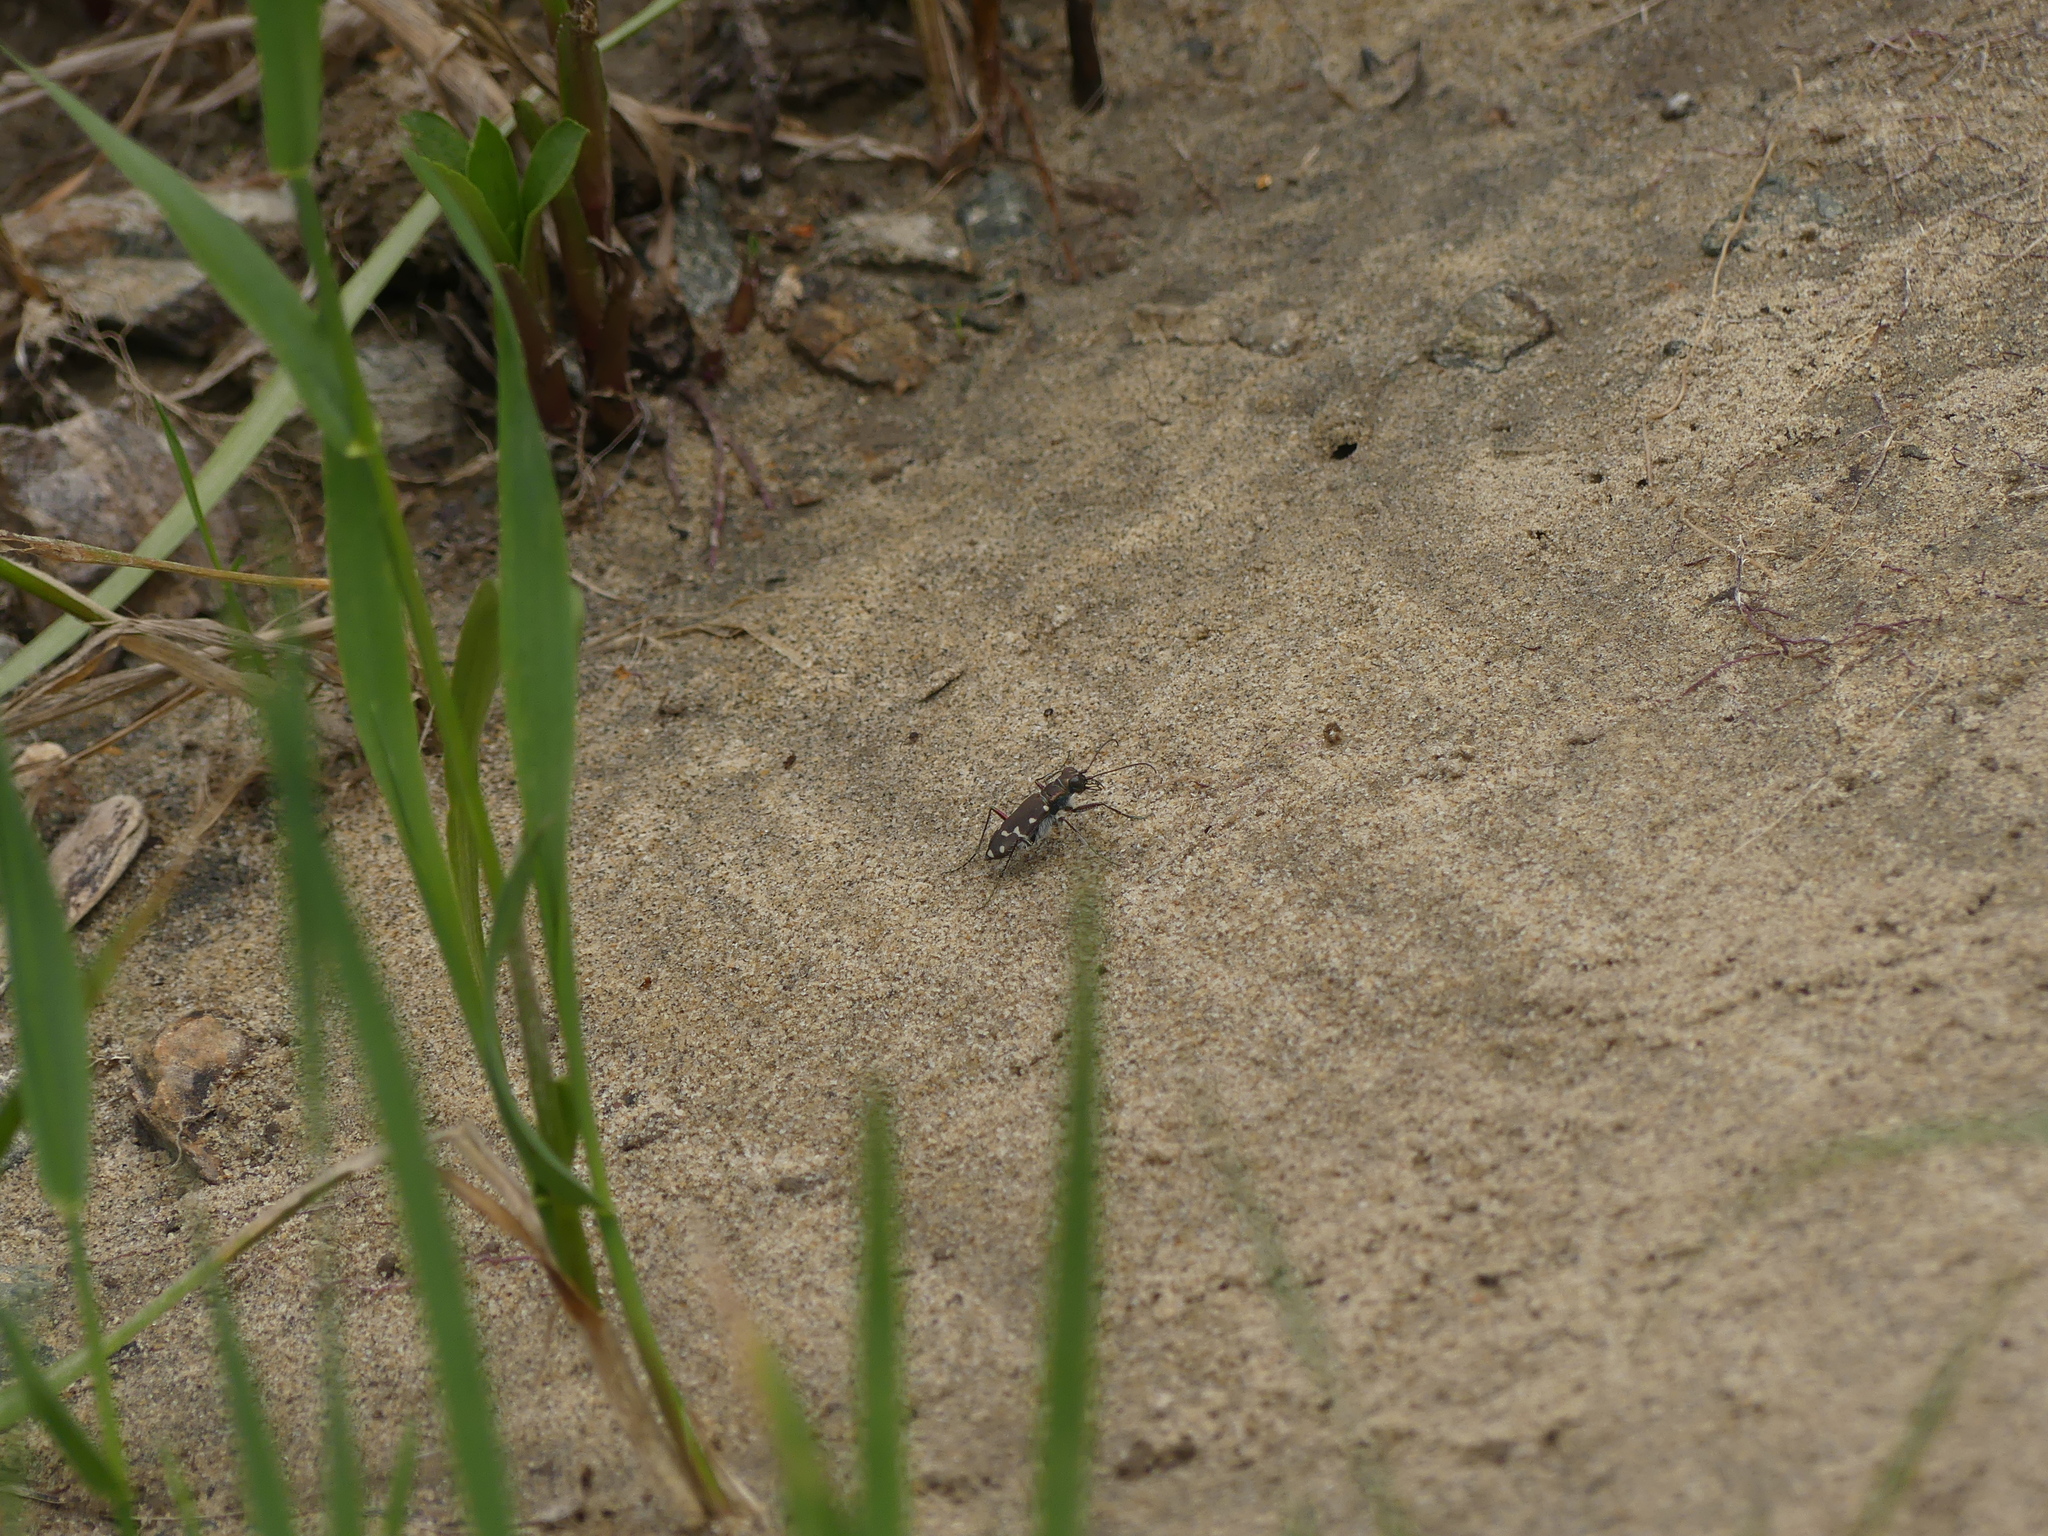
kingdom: Animalia
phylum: Arthropoda
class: Insecta
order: Coleoptera
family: Carabidae
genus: Cicindela
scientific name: Cicindela oregona
